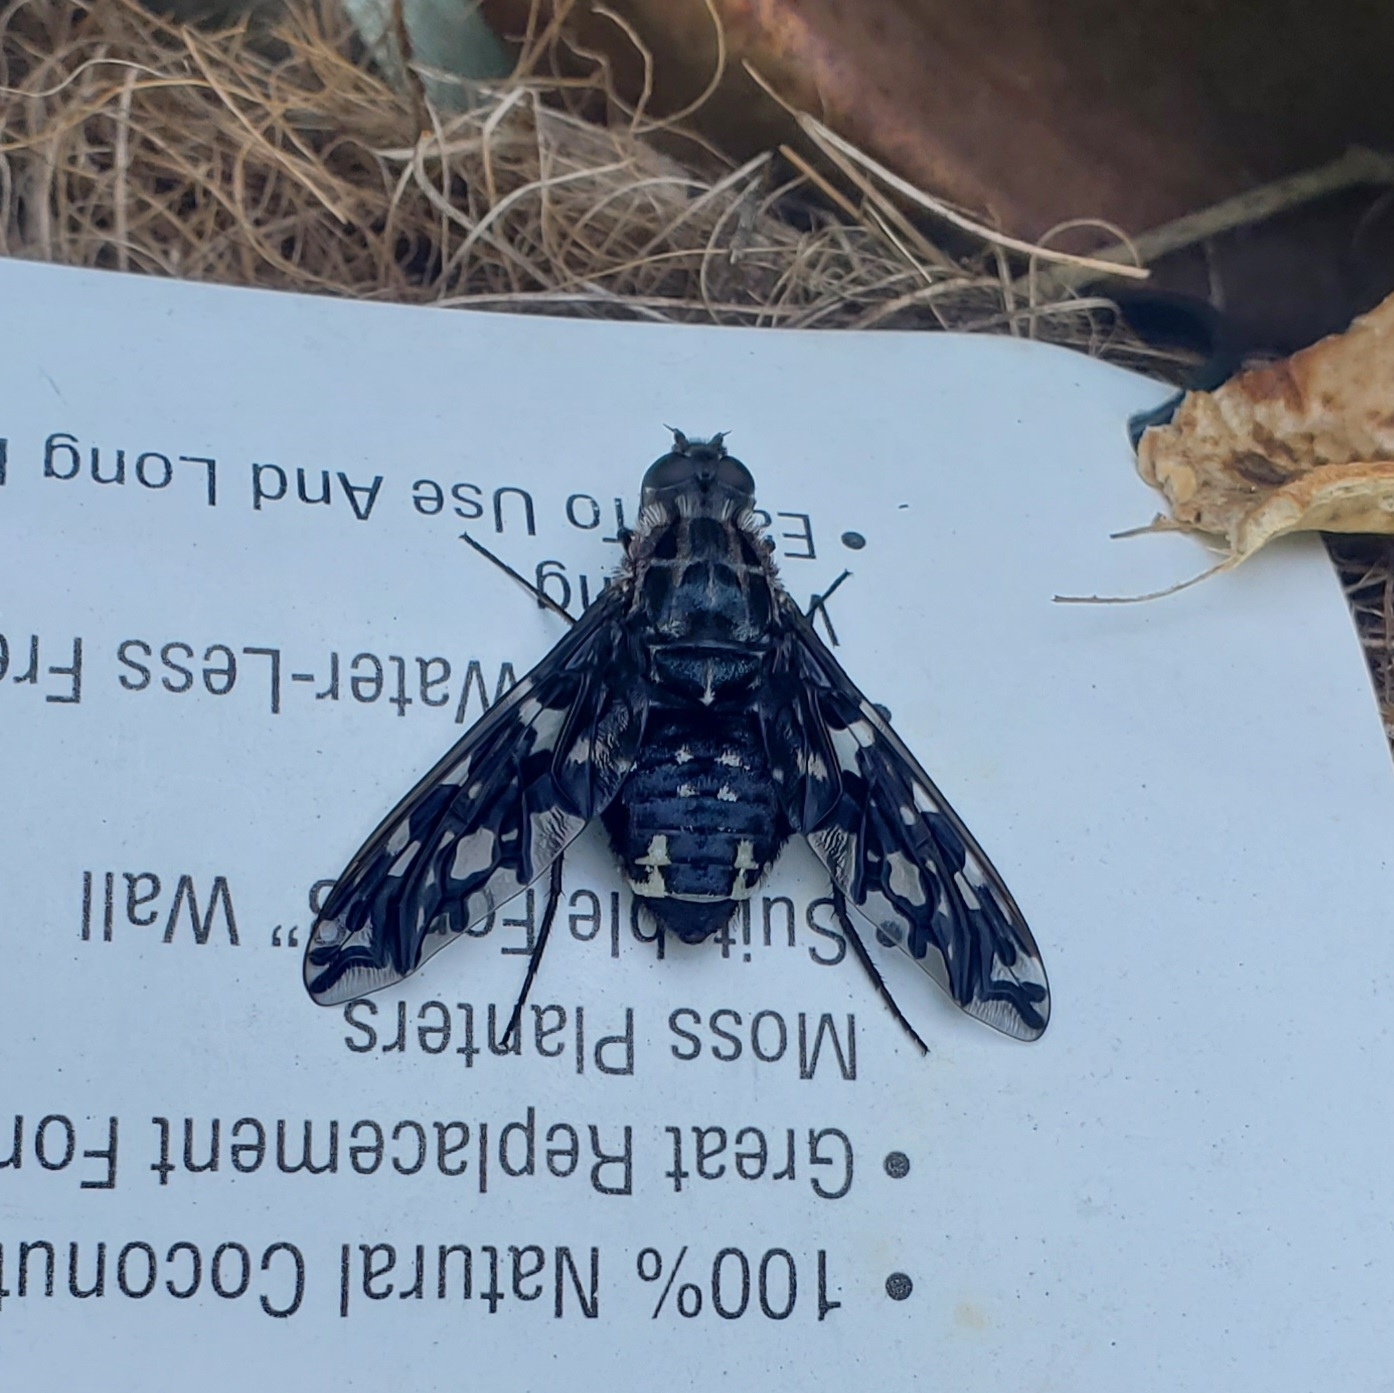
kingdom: Animalia
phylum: Arthropoda
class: Insecta
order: Diptera
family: Bombyliidae
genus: Xenox
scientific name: Xenox tigrinus
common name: Tiger bee fly
